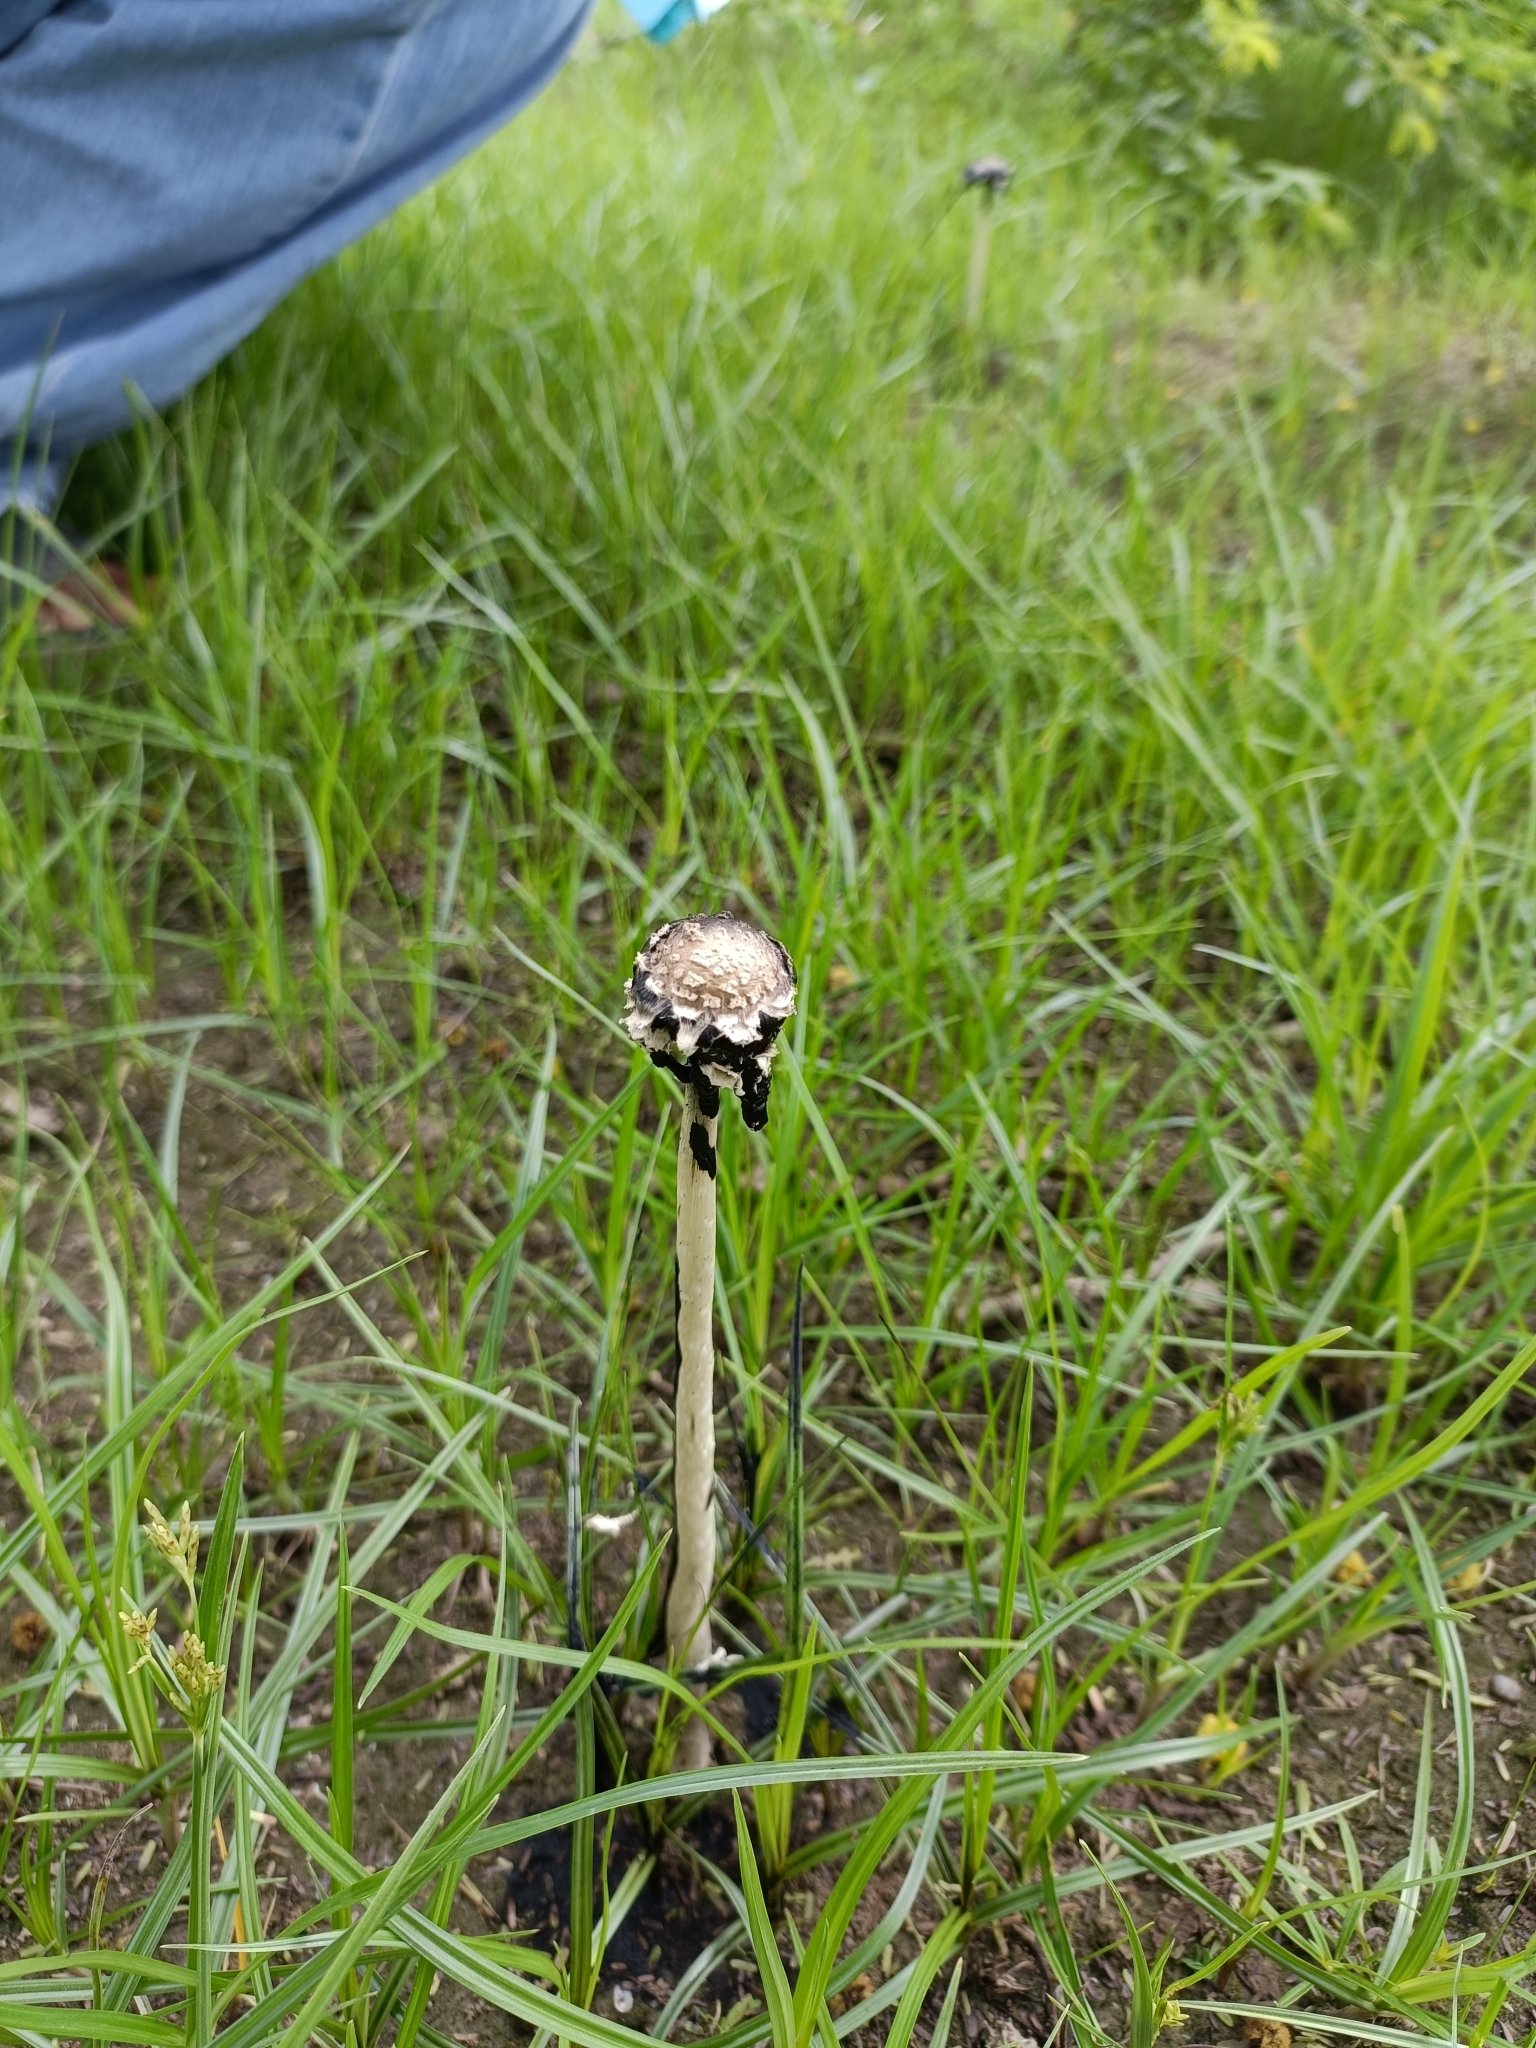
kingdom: Fungi
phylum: Basidiomycota
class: Agaricomycetes
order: Agaricales
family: Agaricaceae
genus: Coprinus
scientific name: Coprinus calyptratus
